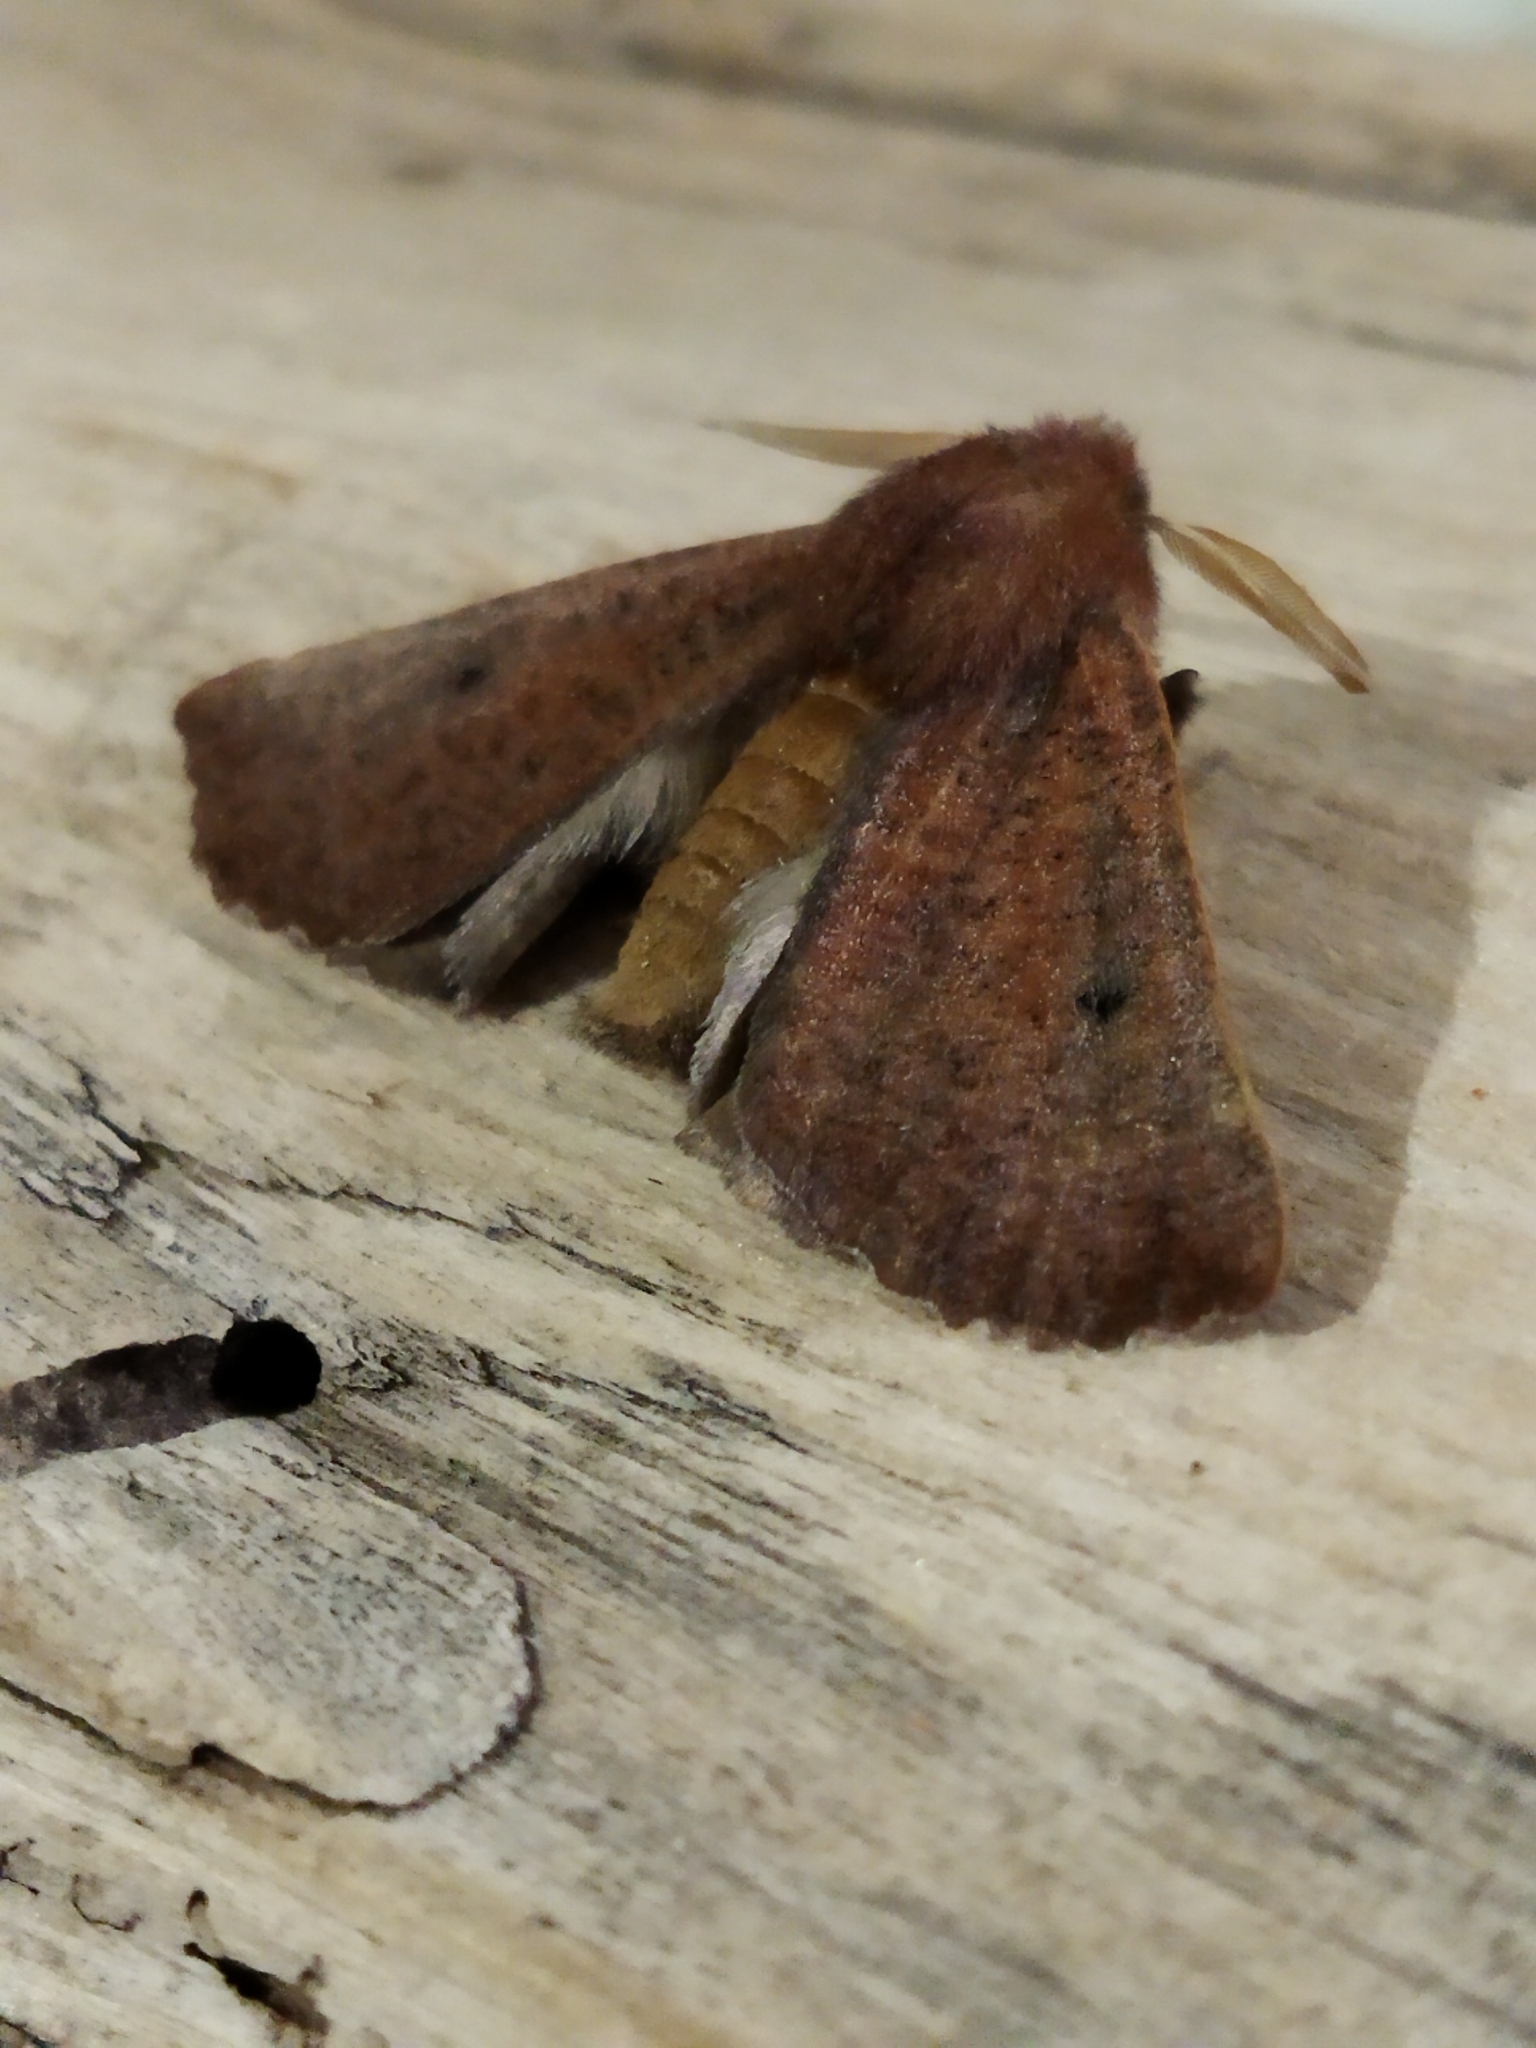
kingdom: Animalia
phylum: Arthropoda
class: Insecta
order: Lepidoptera
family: Geometridae
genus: Dasycorsa
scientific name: Dasycorsa modesta
